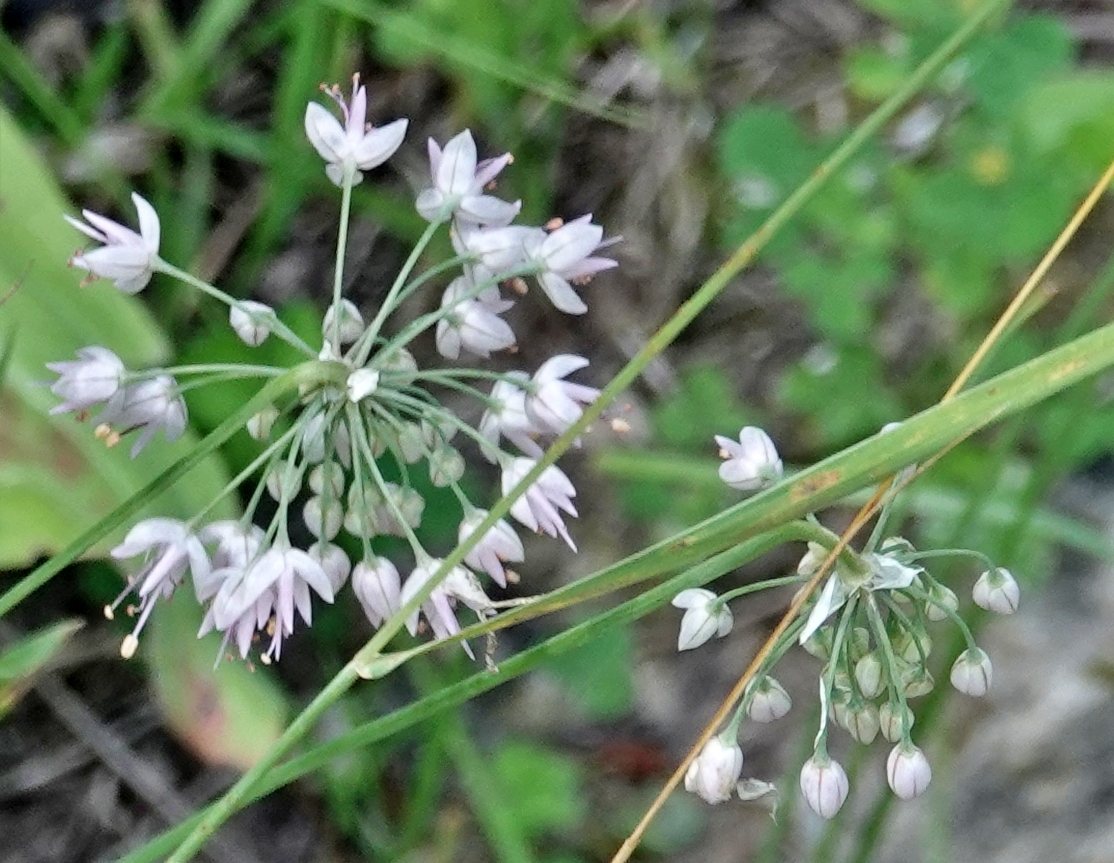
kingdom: Plantae
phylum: Tracheophyta
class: Liliopsida
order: Asparagales
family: Amaryllidaceae
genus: Allium
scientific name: Allium cernuum
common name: Nodding onion
